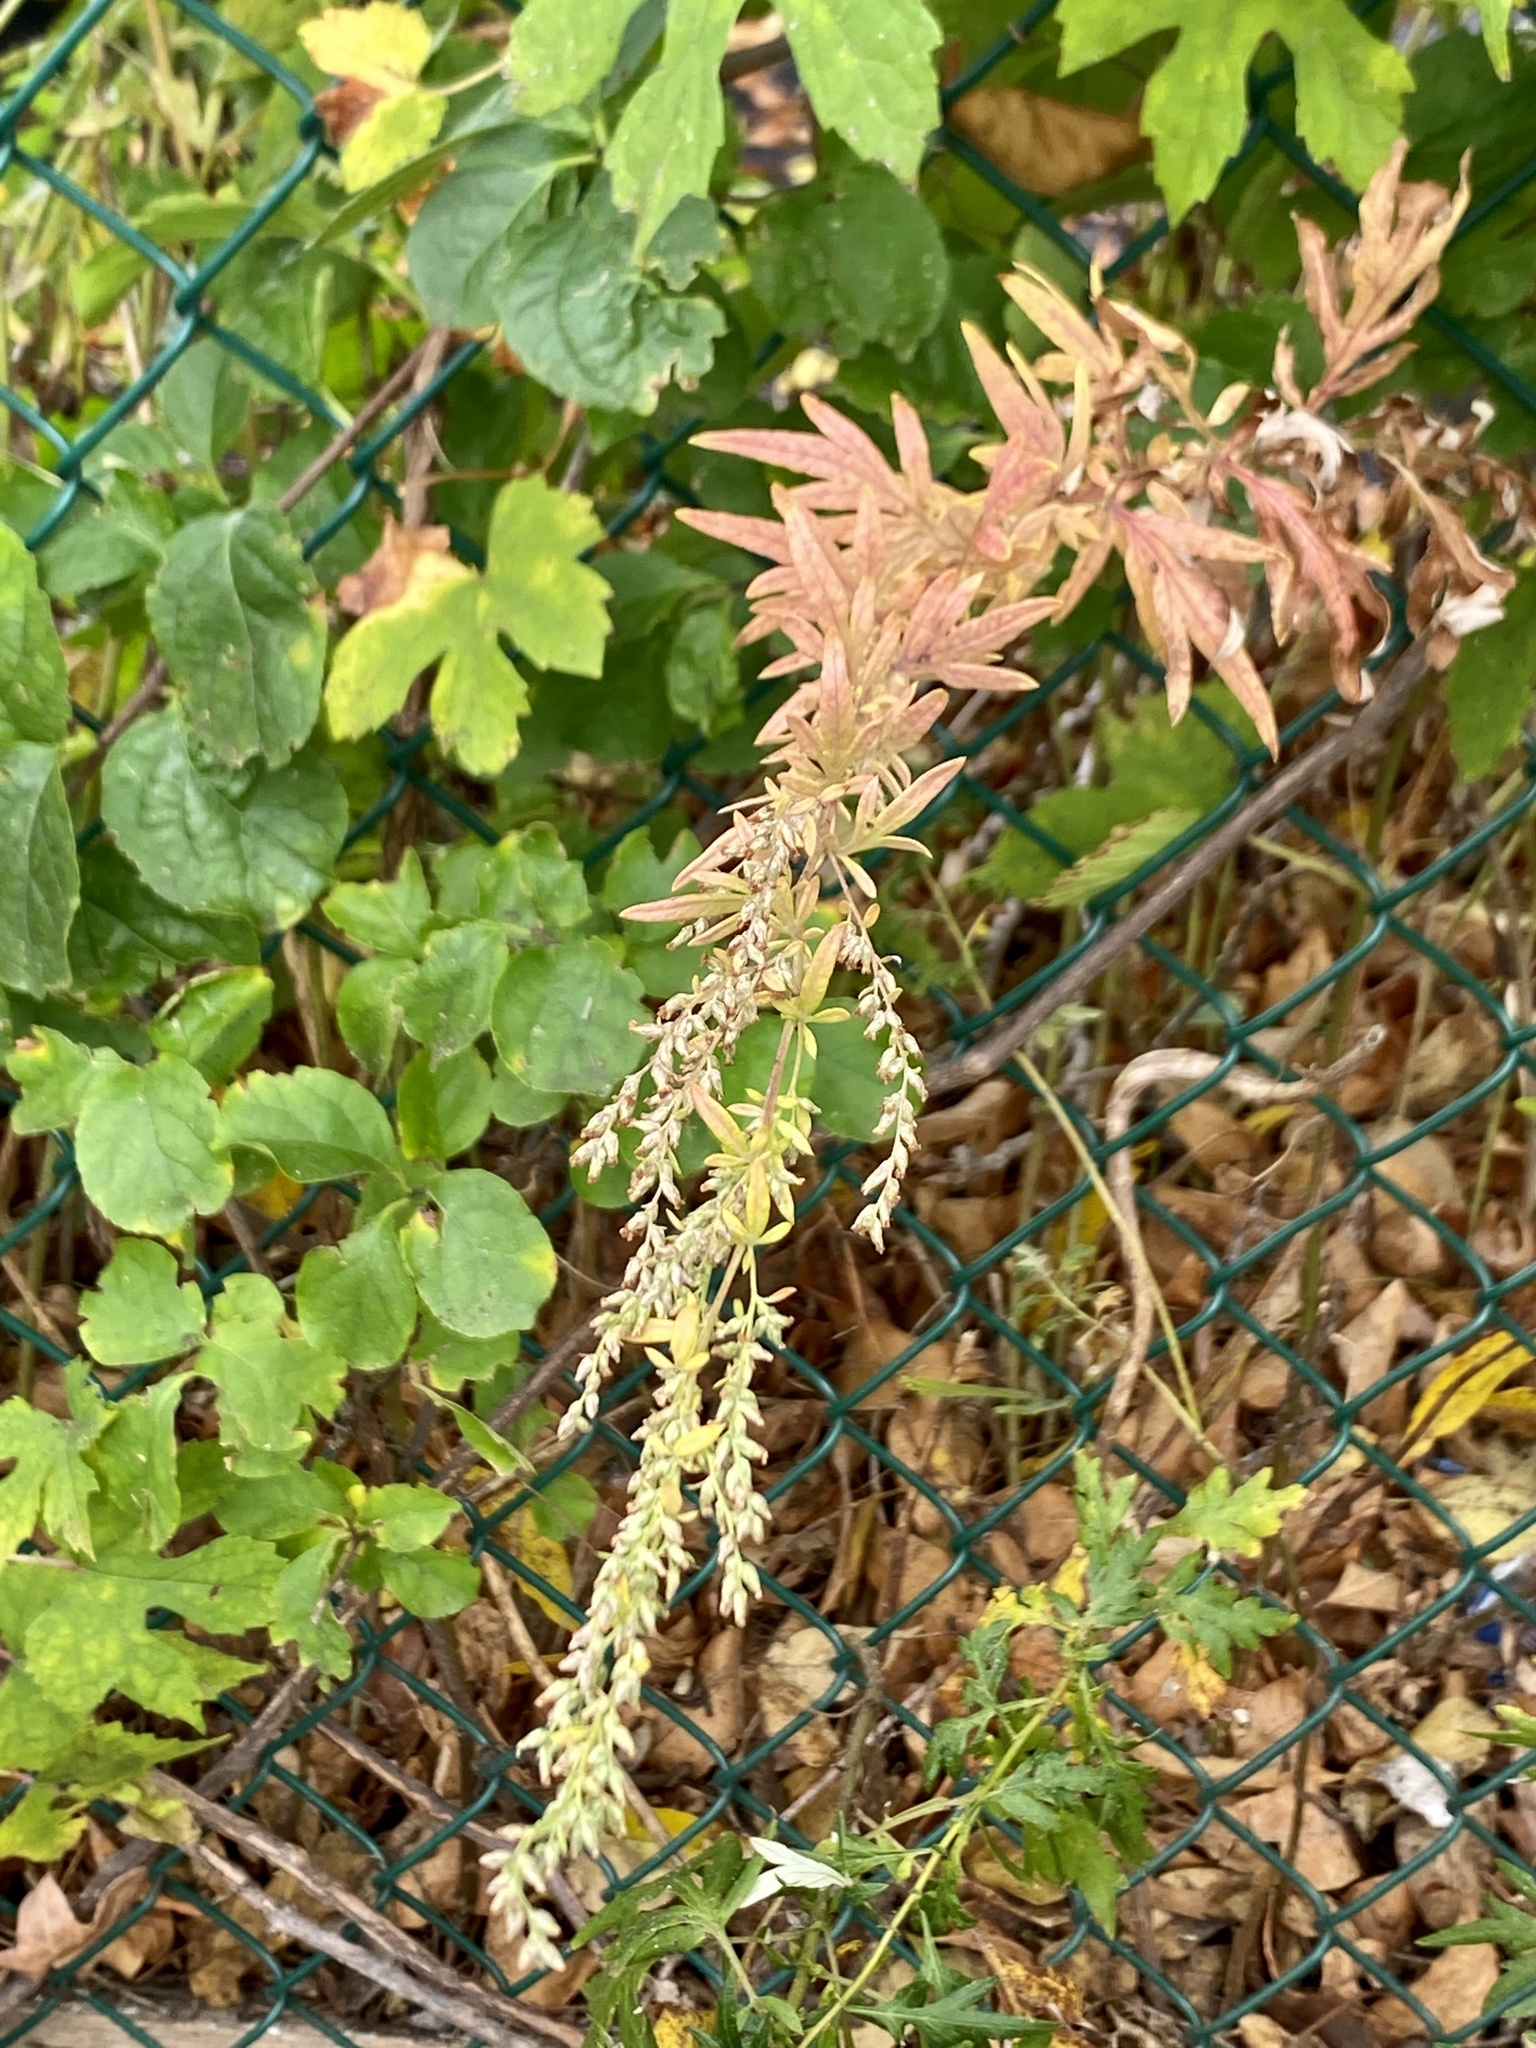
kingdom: Plantae
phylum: Tracheophyta
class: Magnoliopsida
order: Asterales
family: Asteraceae
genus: Artemisia
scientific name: Artemisia vulgaris
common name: Mugwort
